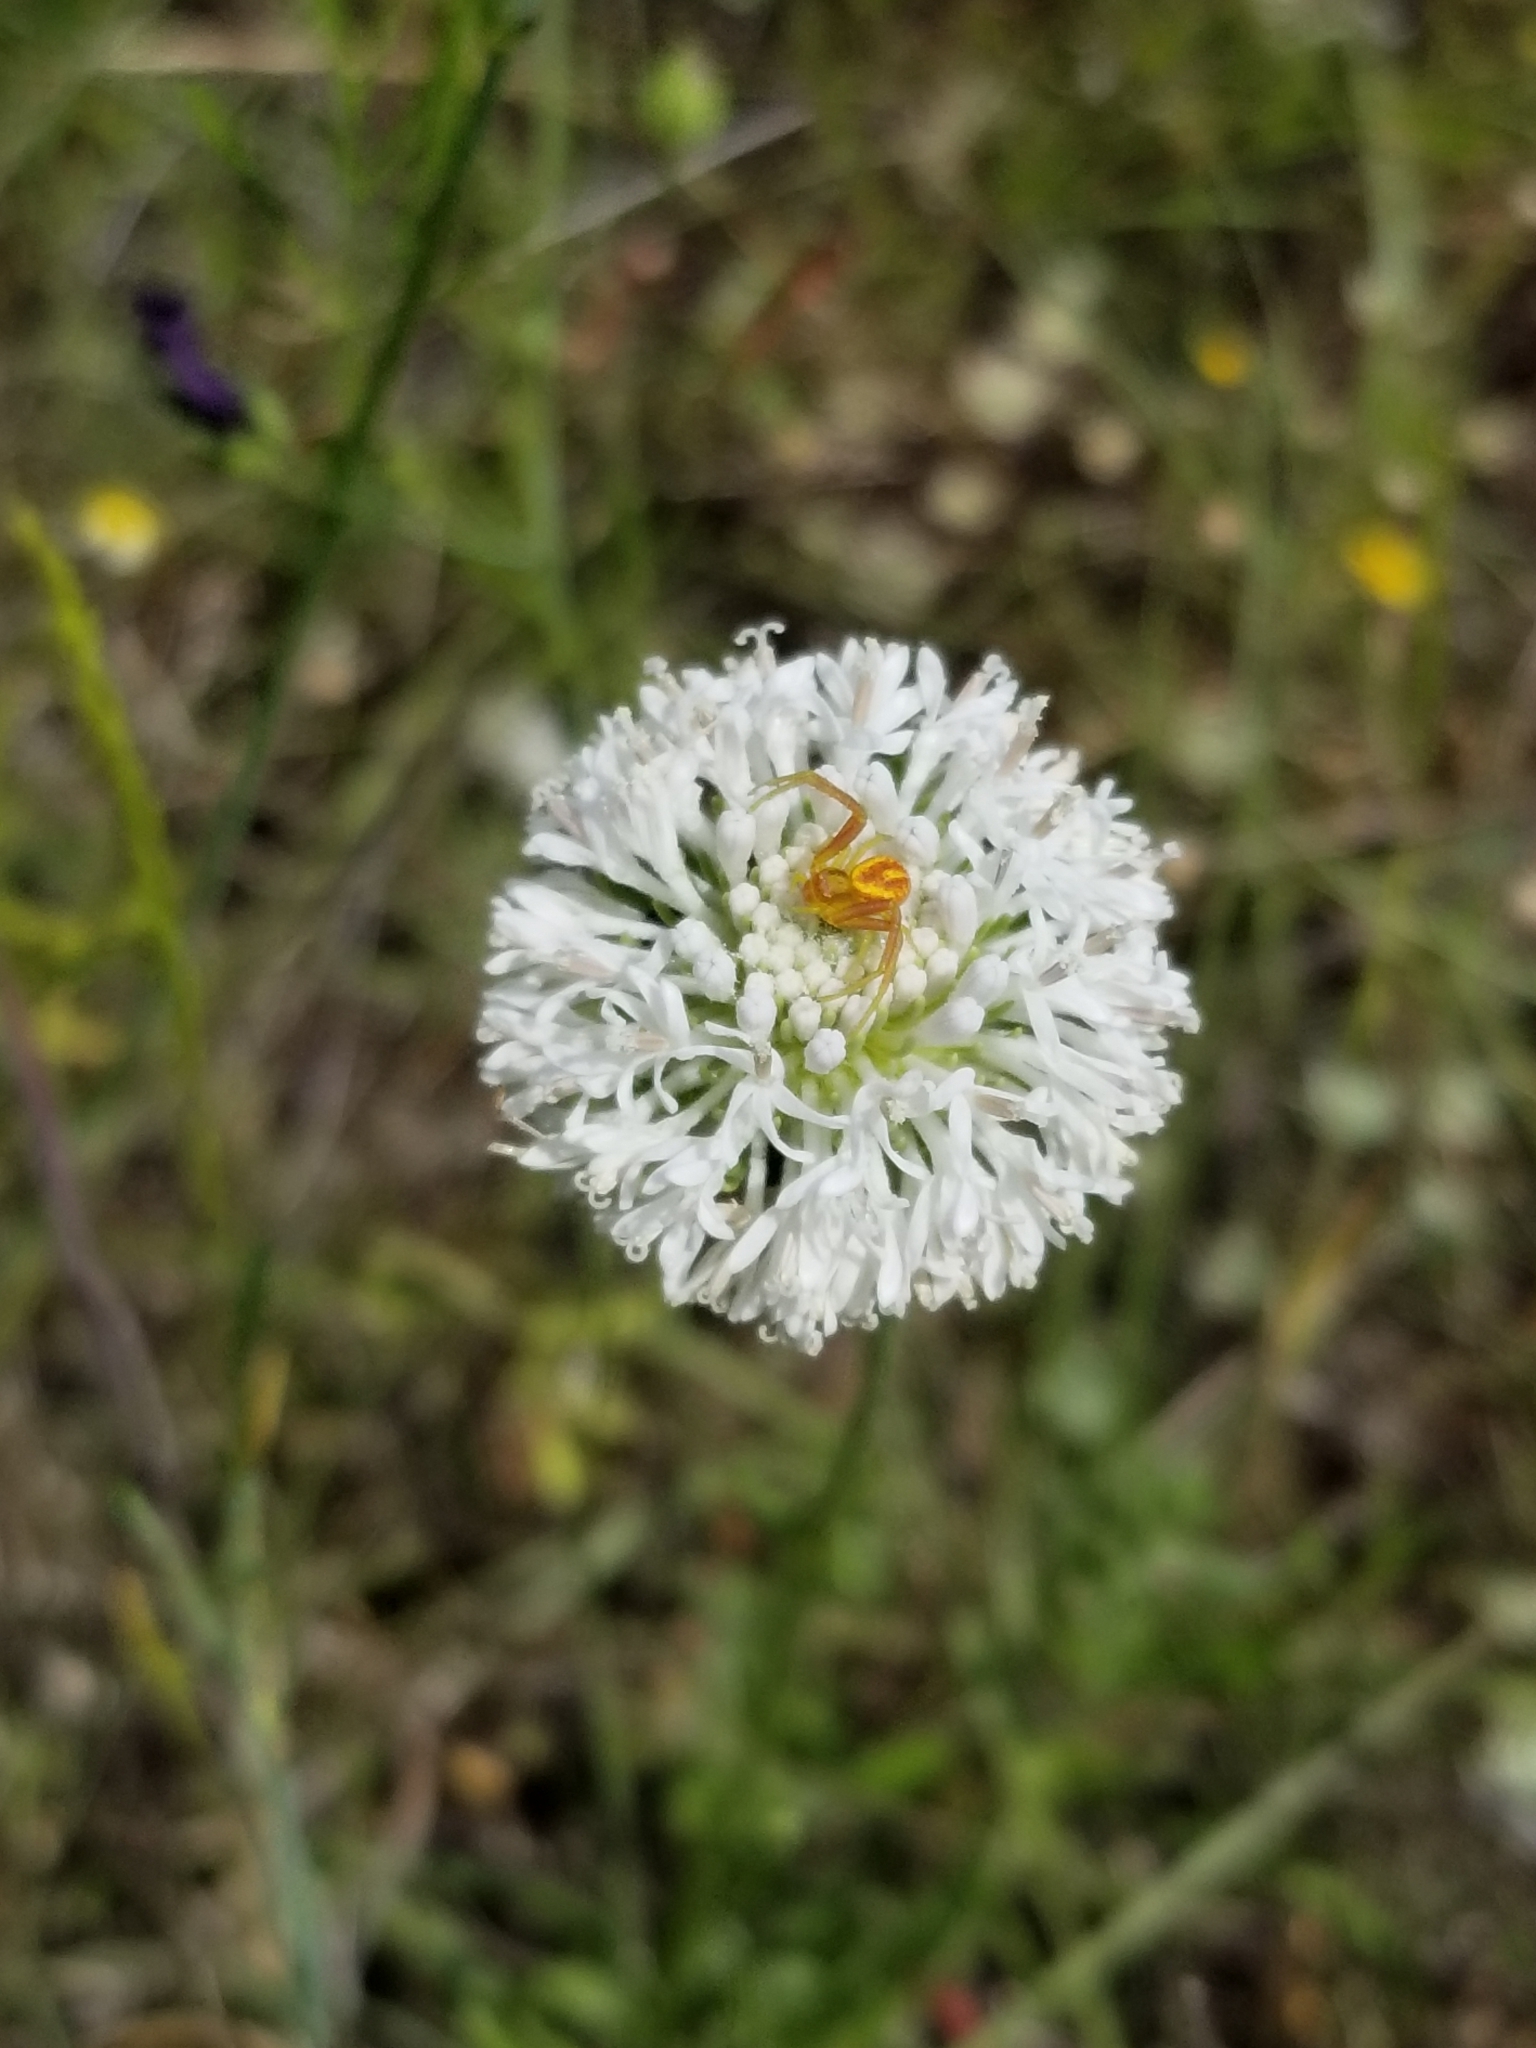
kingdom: Plantae
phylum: Tracheophyta
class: Magnoliopsida
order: Asterales
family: Asteraceae
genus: Marshallia
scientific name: Marshallia caespitosa
